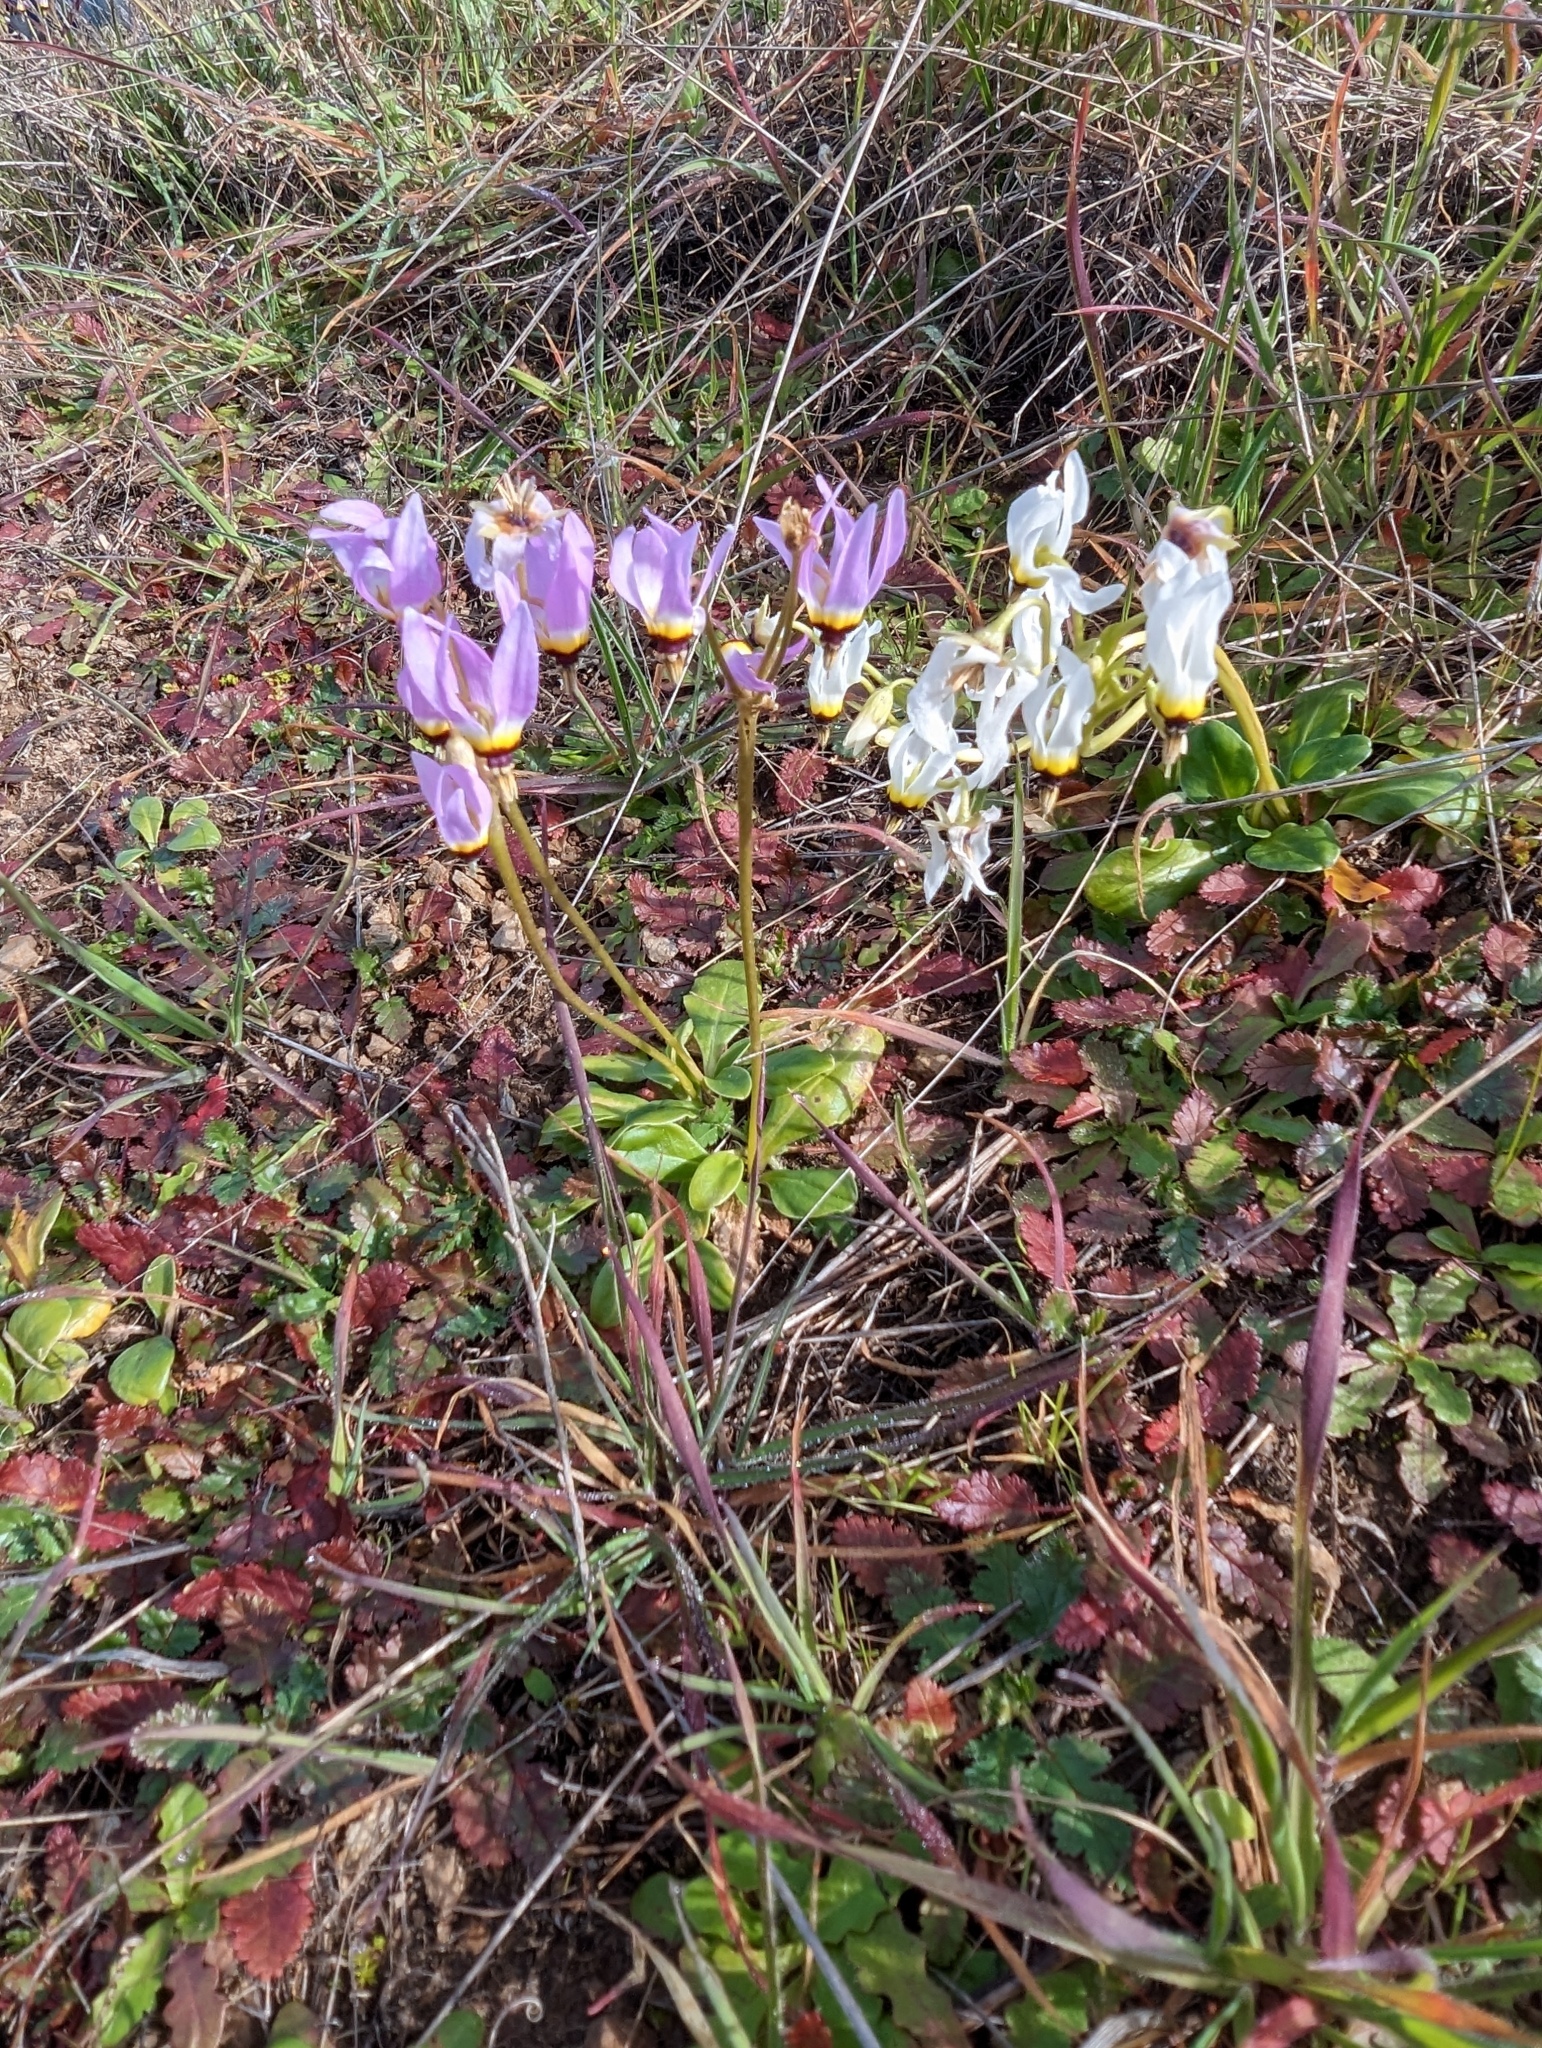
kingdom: Plantae
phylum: Tracheophyta
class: Magnoliopsida
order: Ericales
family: Primulaceae
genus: Dodecatheon
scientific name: Dodecatheon clevelandii
